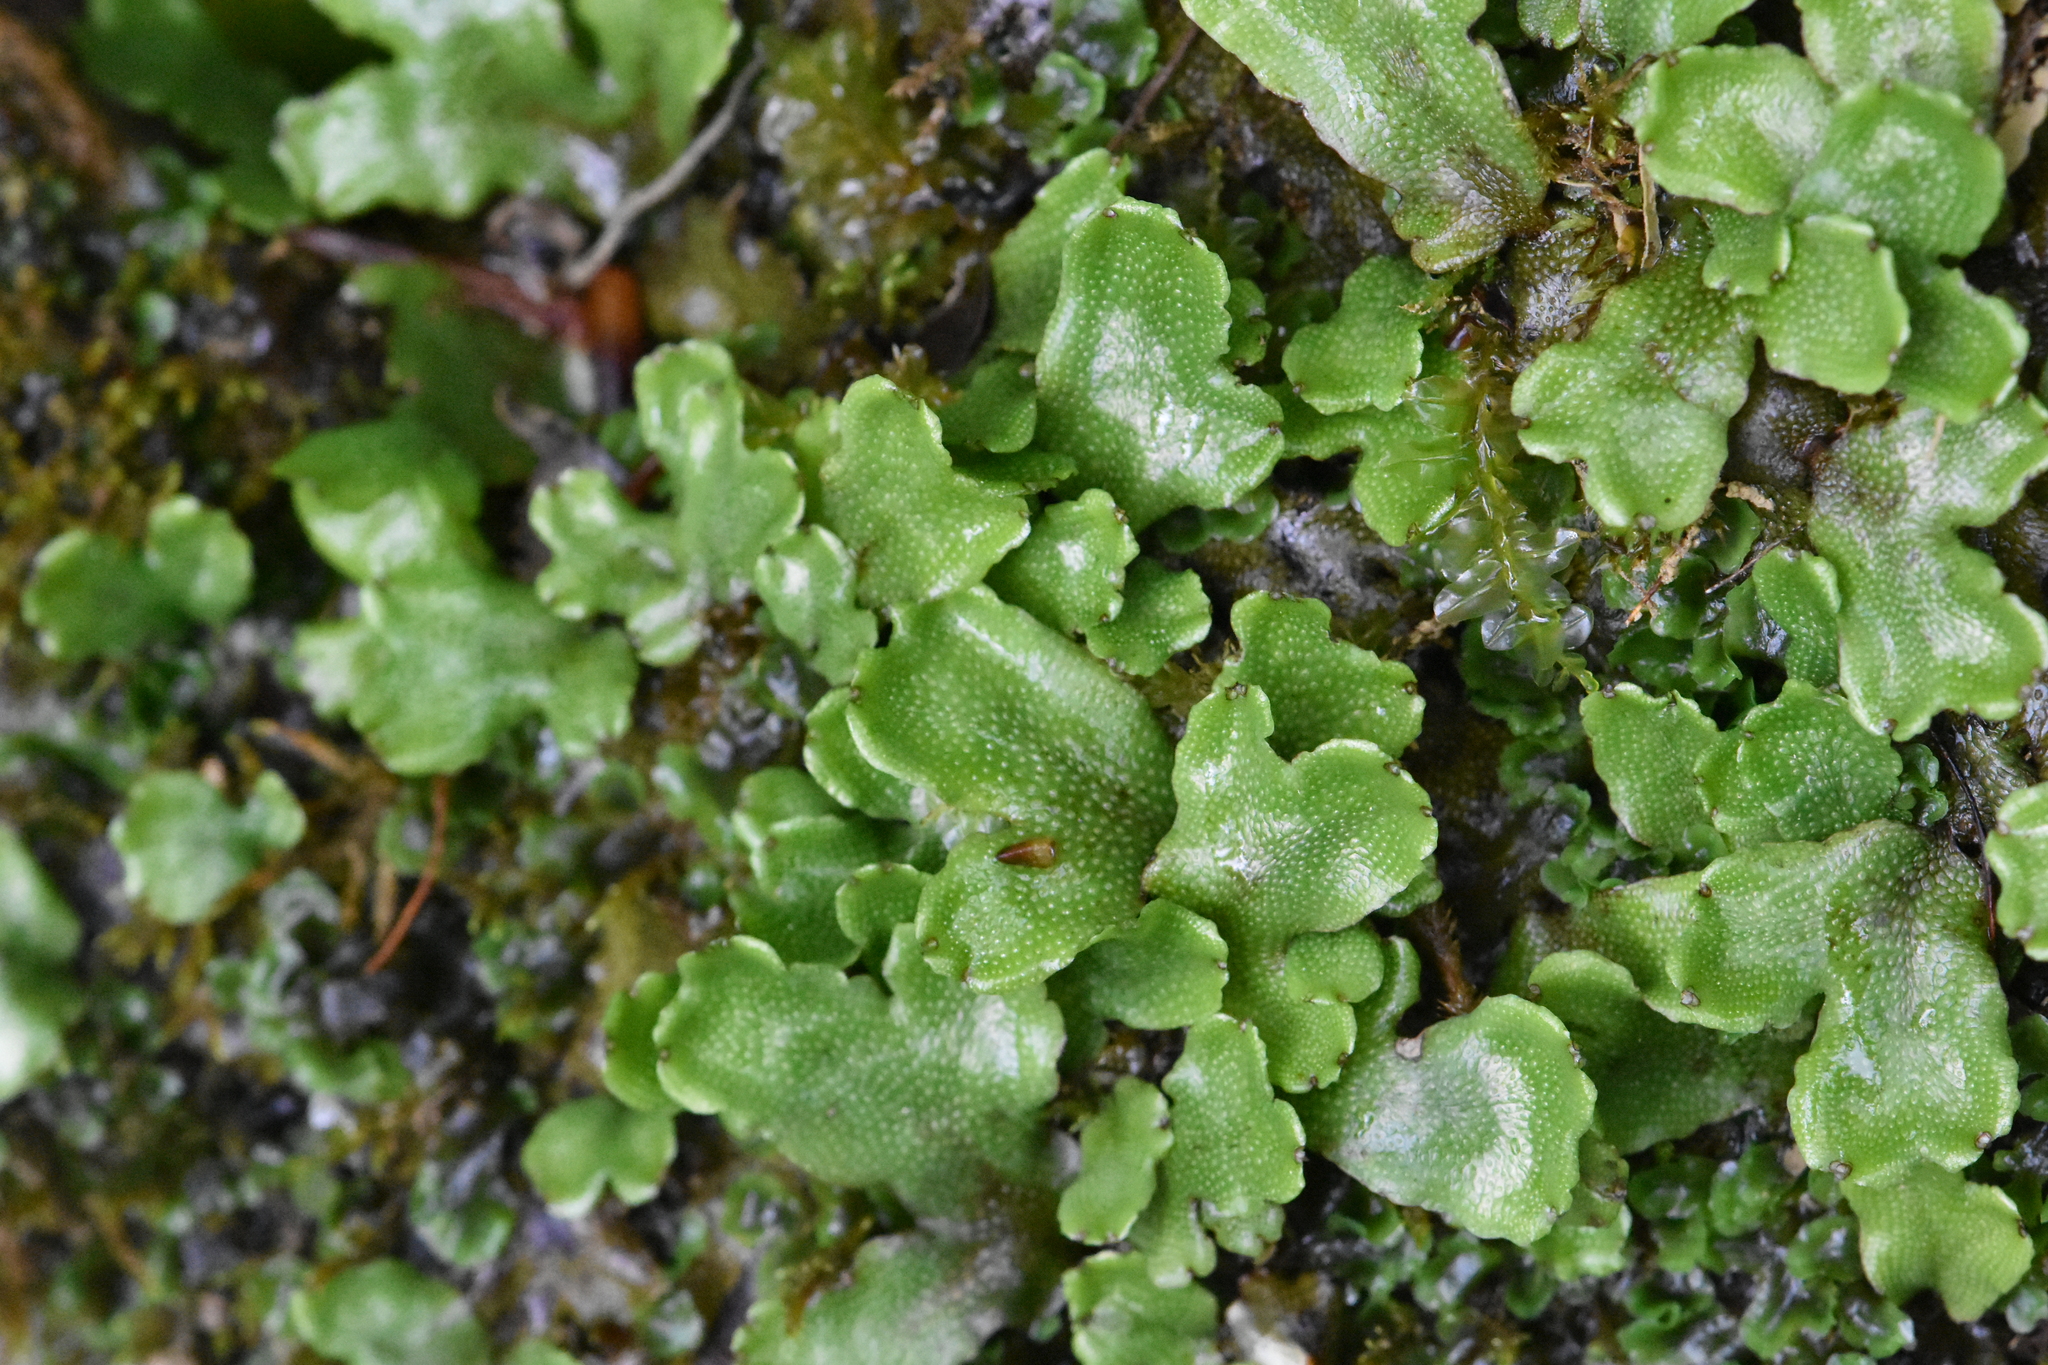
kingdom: Plantae
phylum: Marchantiophyta
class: Marchantiopsida
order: Marchantiales
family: Conocephalaceae
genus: Conocephalum
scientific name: Conocephalum conicum
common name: Great scented liverwort
